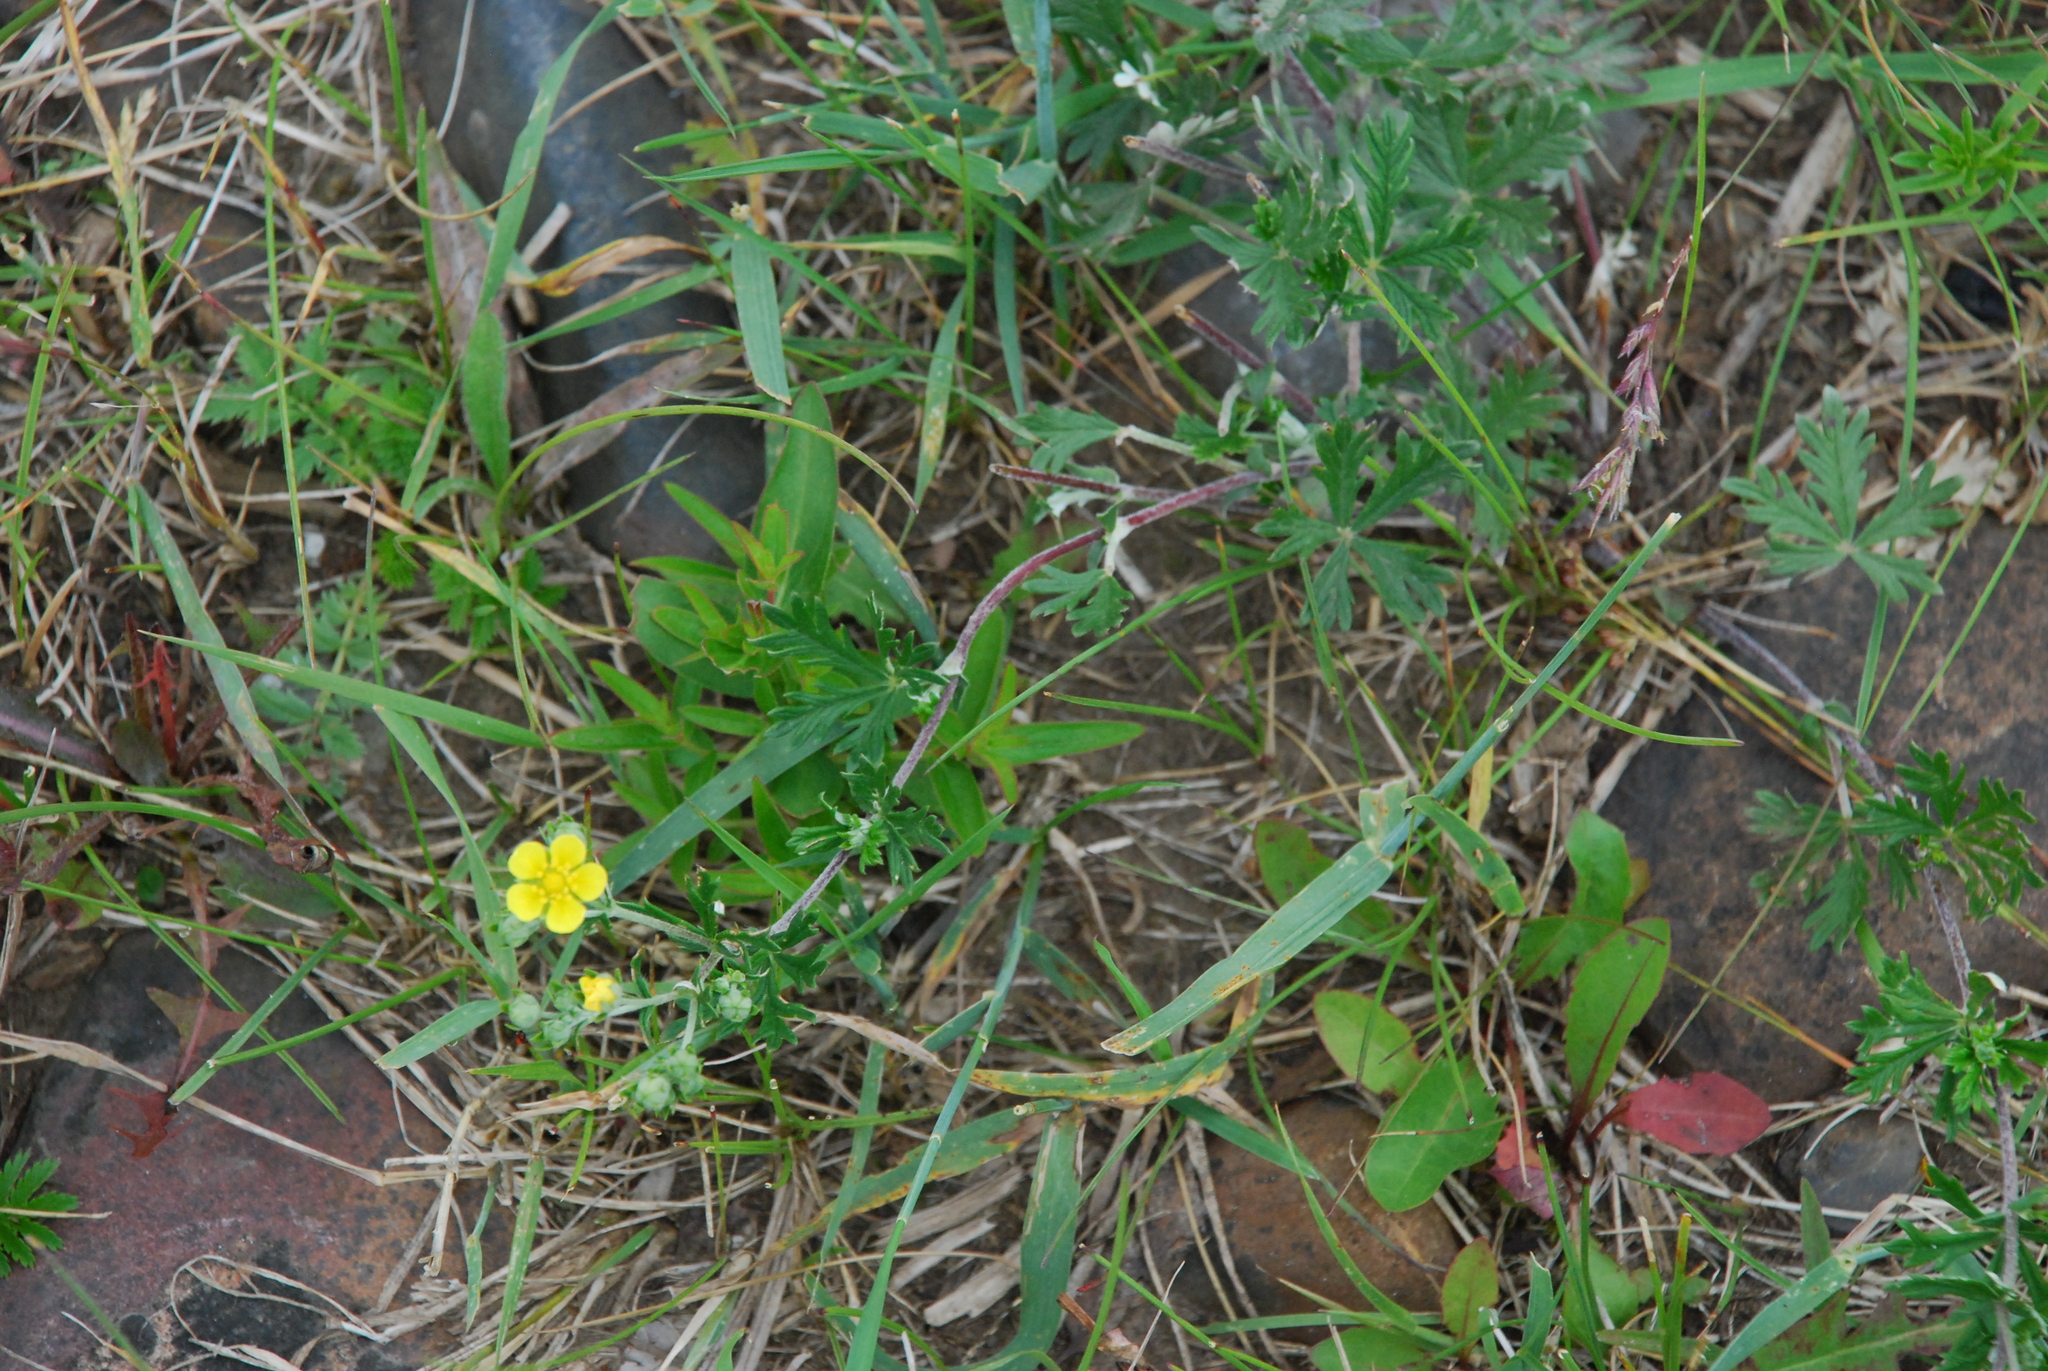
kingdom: Plantae
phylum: Tracheophyta
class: Magnoliopsida
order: Rosales
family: Rosaceae
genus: Potentilla
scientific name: Potentilla argentea
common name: Hoary cinquefoil
